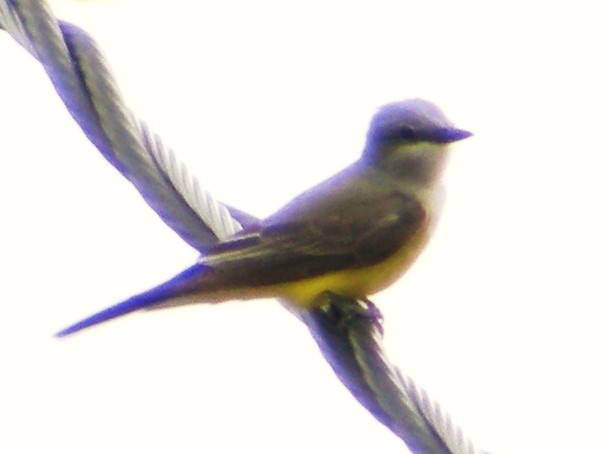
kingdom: Animalia
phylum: Chordata
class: Aves
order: Passeriformes
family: Tyrannidae
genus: Tyrannus
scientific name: Tyrannus verticalis
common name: Western kingbird
